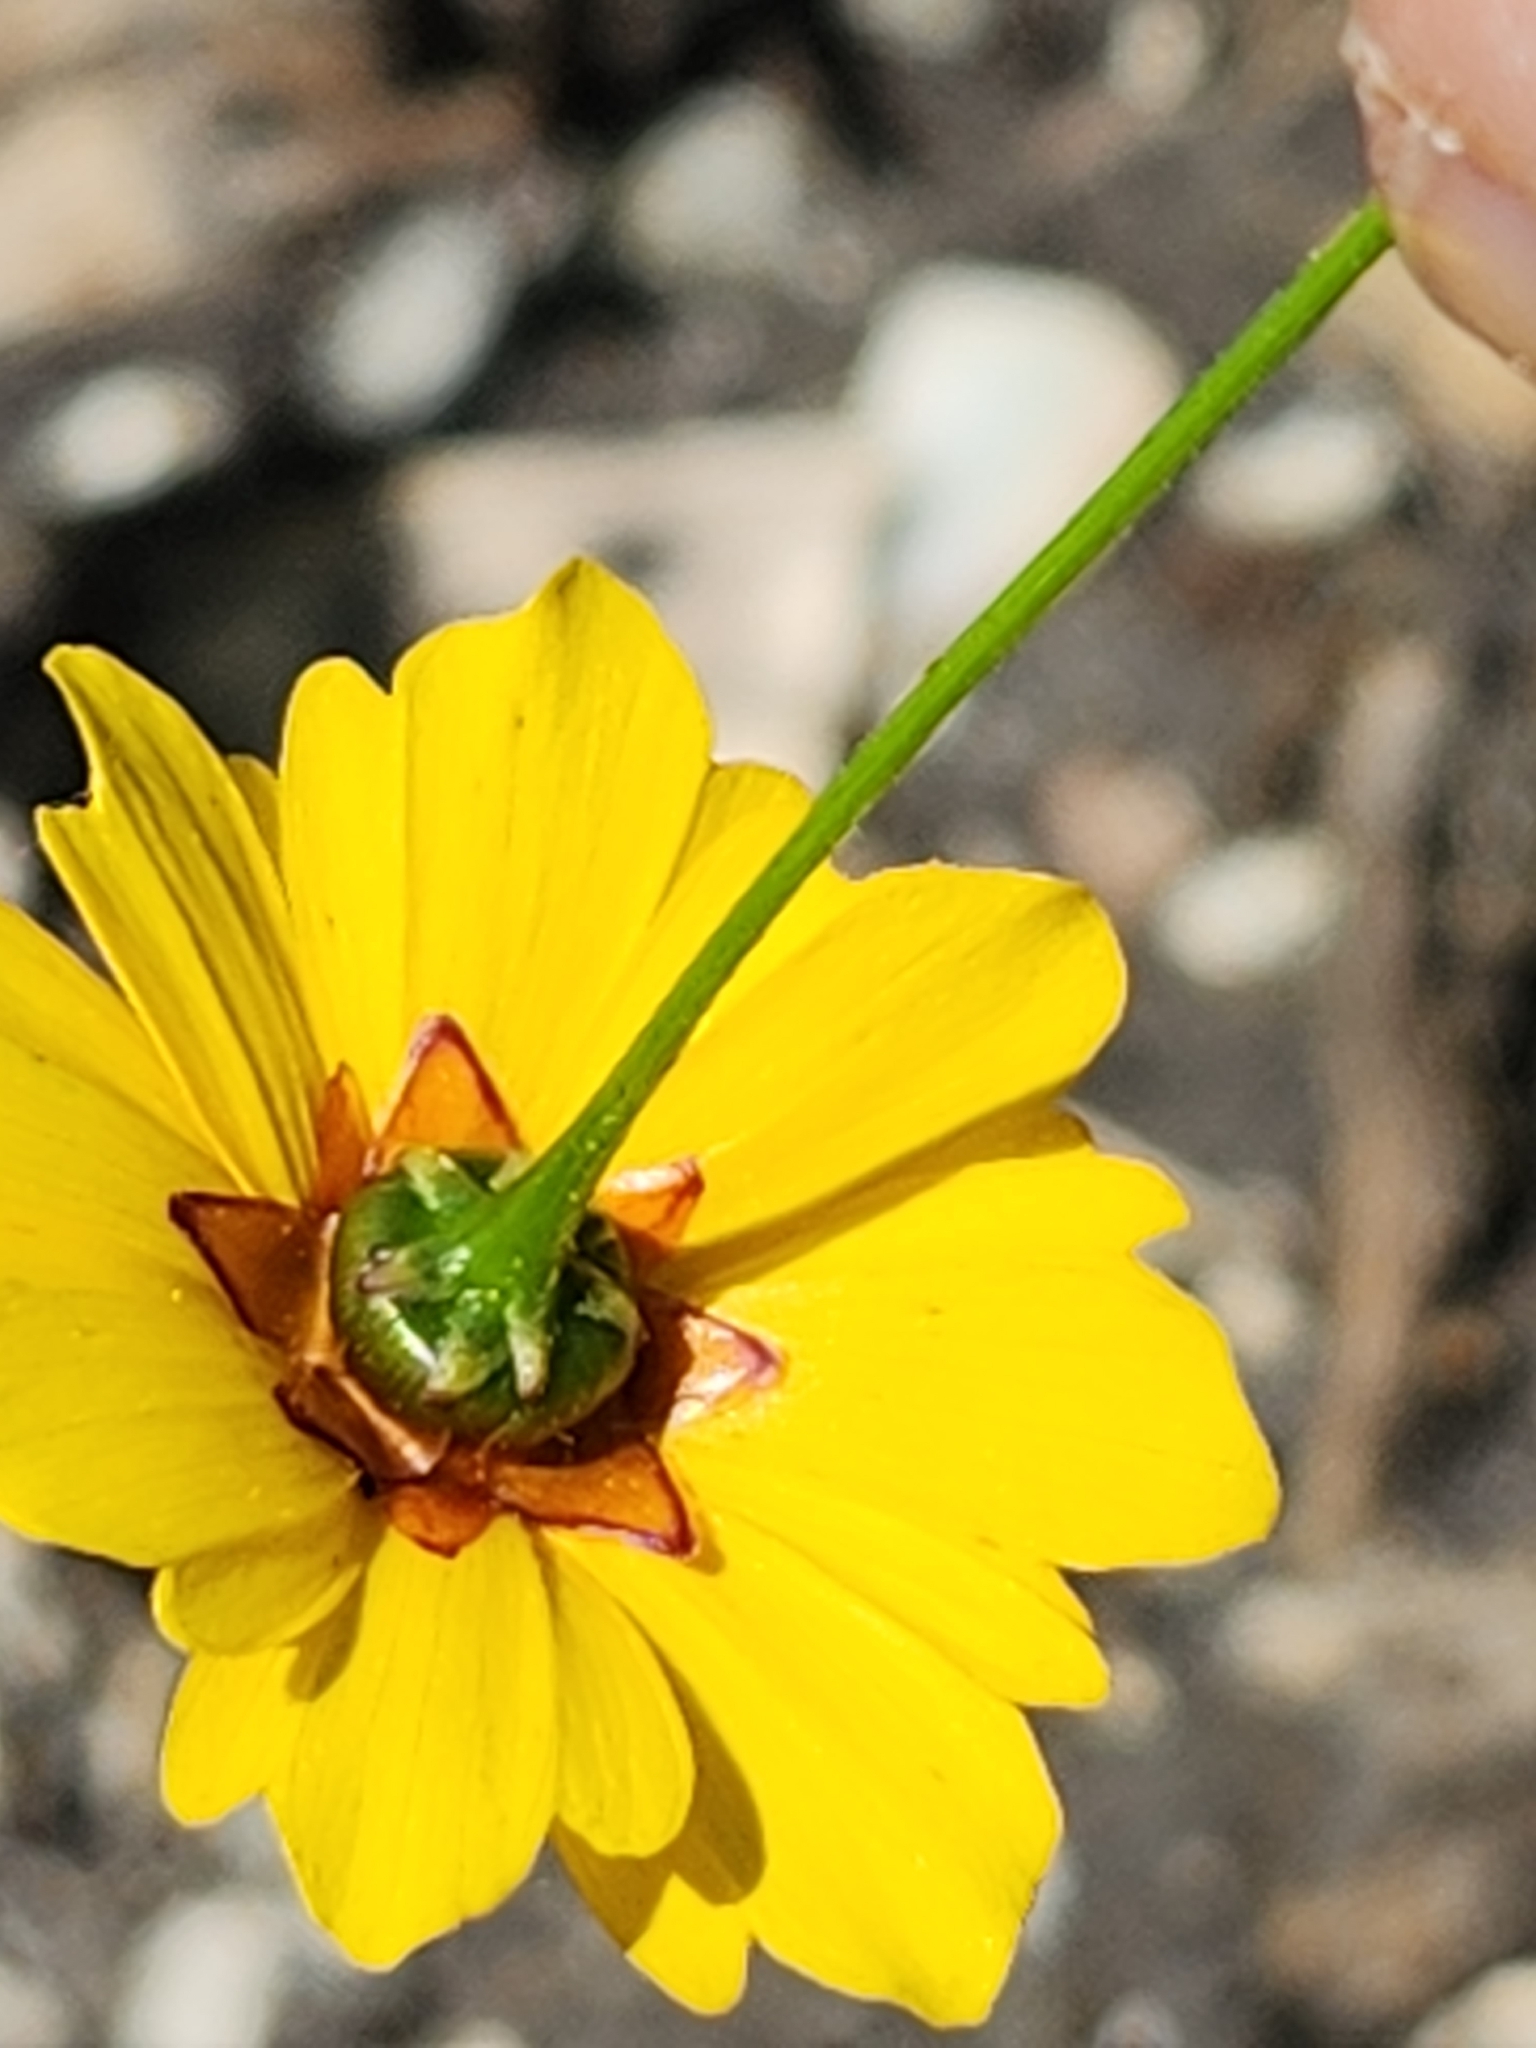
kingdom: Plantae
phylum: Tracheophyta
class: Magnoliopsida
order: Asterales
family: Asteraceae
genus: Coreopsis
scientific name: Coreopsis tinctoria
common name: Garden tickseed
